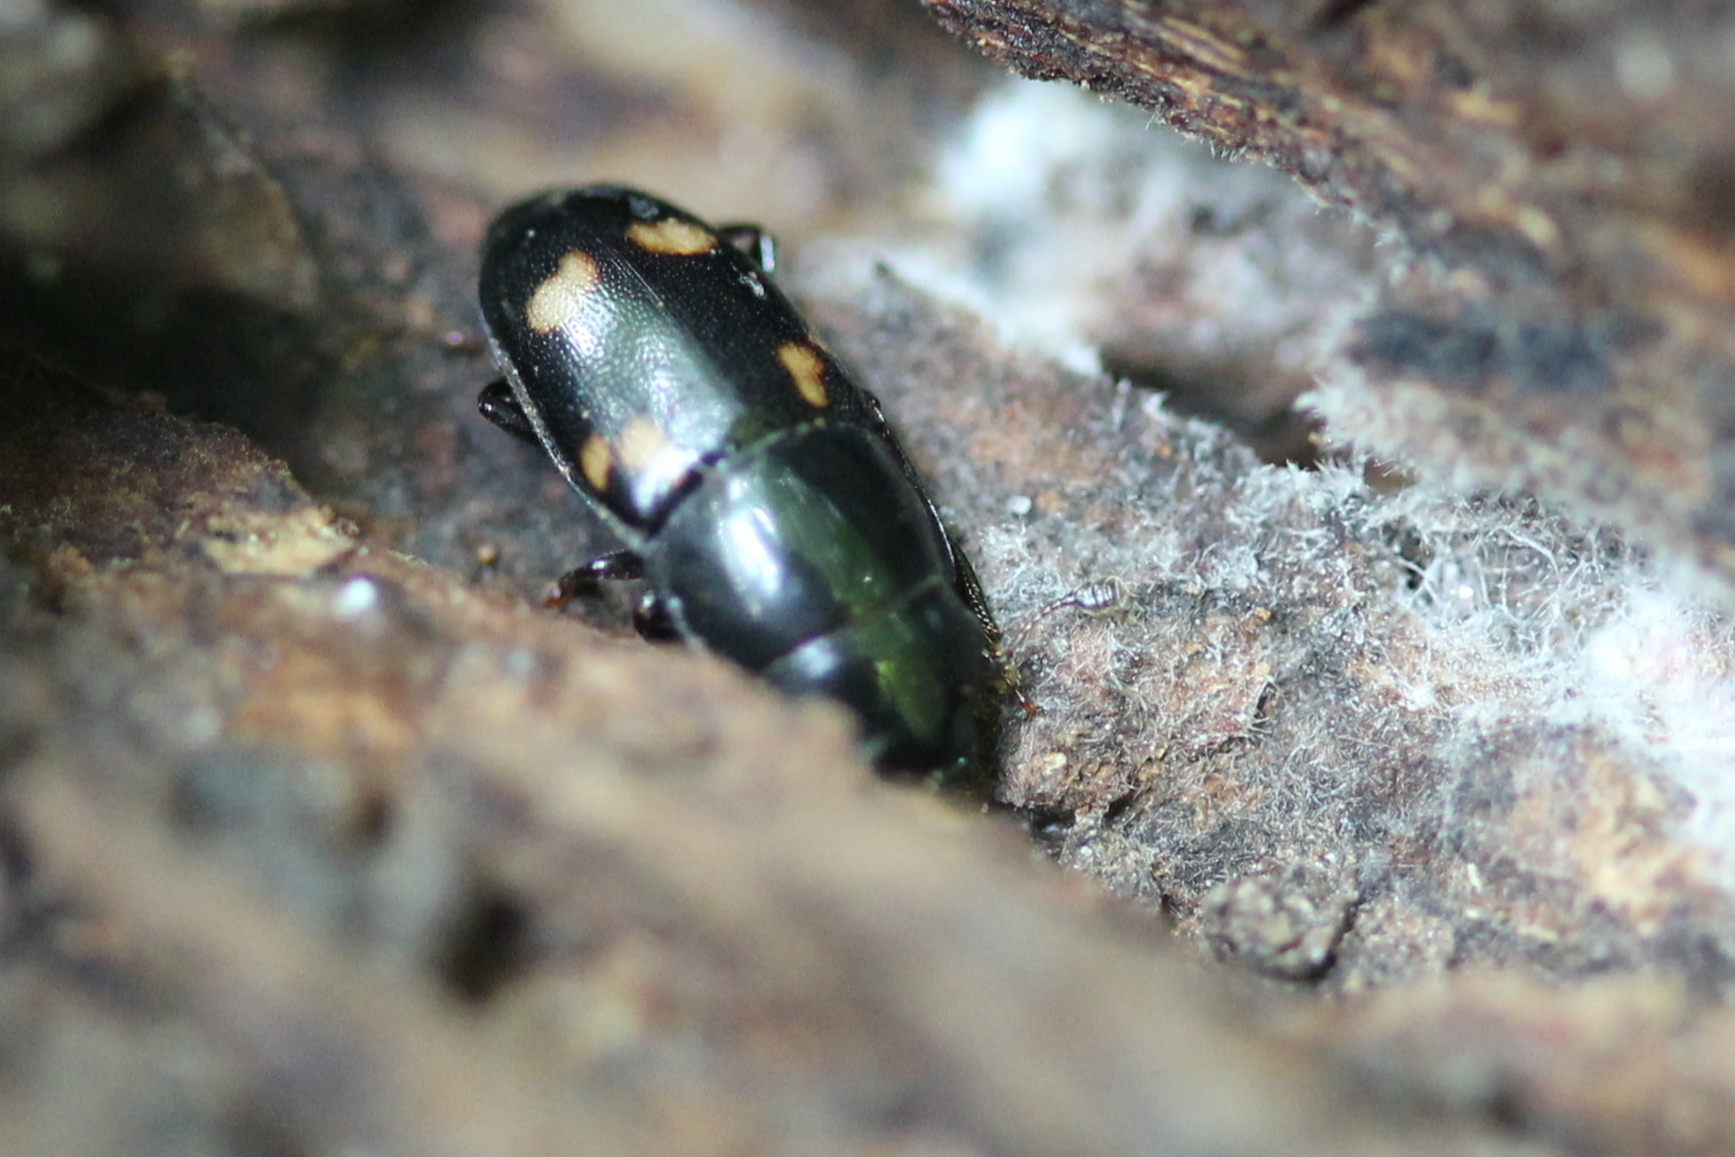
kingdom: Animalia
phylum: Arthropoda
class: Insecta
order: Coleoptera
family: Nitidulidae
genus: Glischrochilus
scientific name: Glischrochilus quadrisignatus
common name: Picnic beetle
